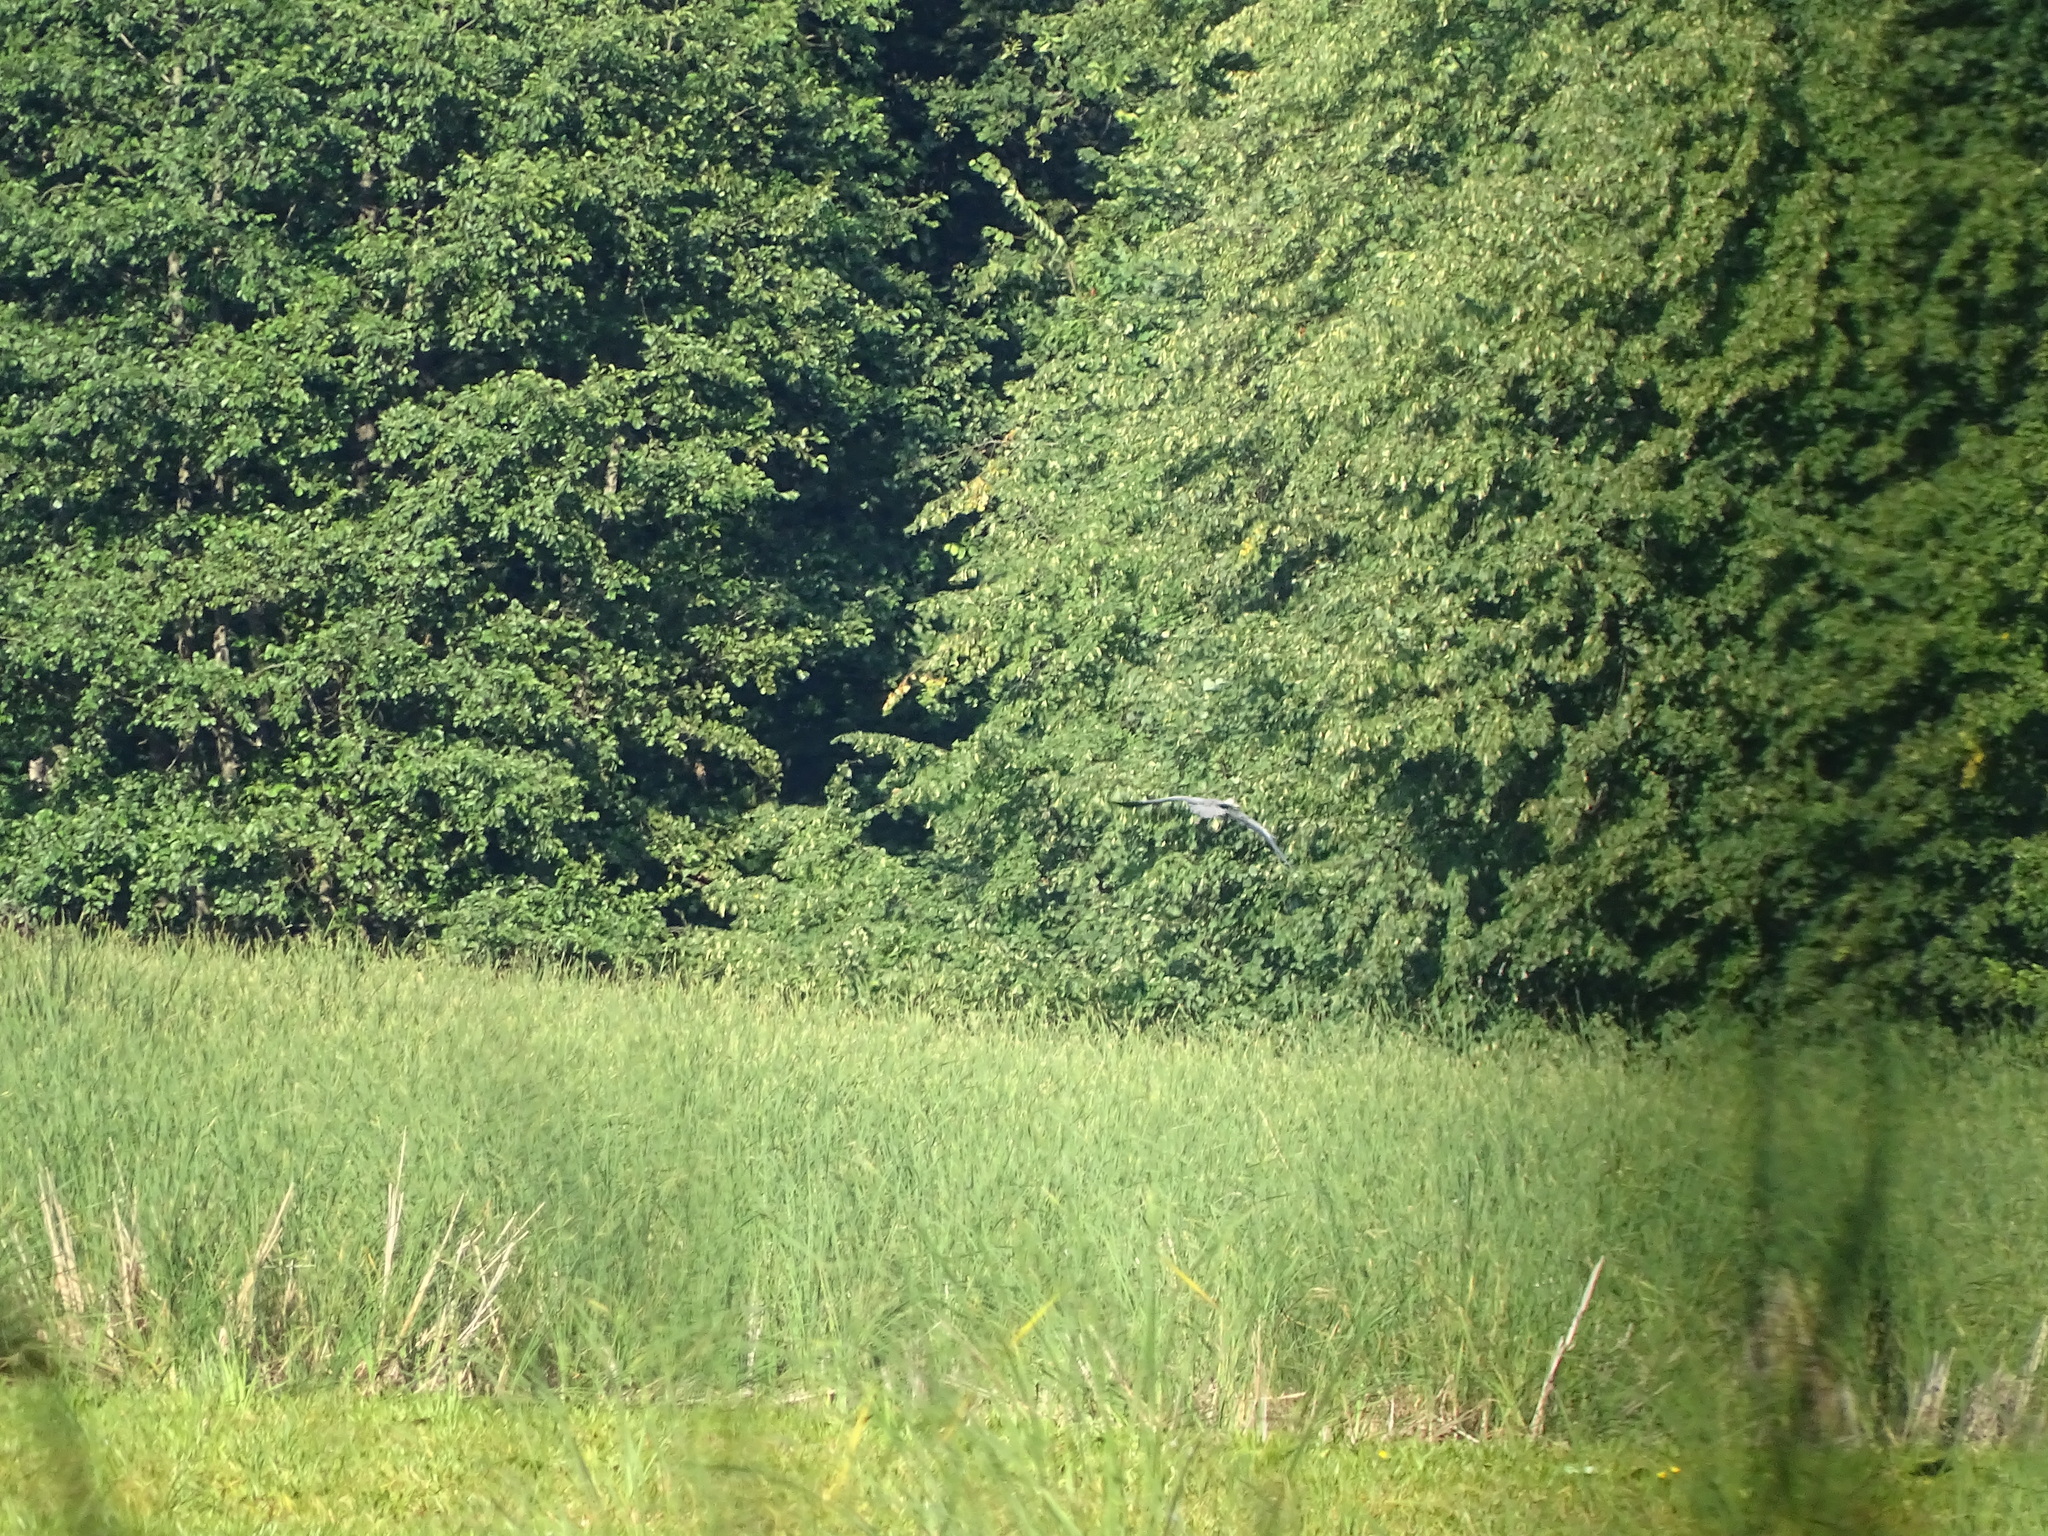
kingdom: Animalia
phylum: Chordata
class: Aves
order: Pelecaniformes
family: Ardeidae
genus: Ardea
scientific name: Ardea cinerea
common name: Grey heron
